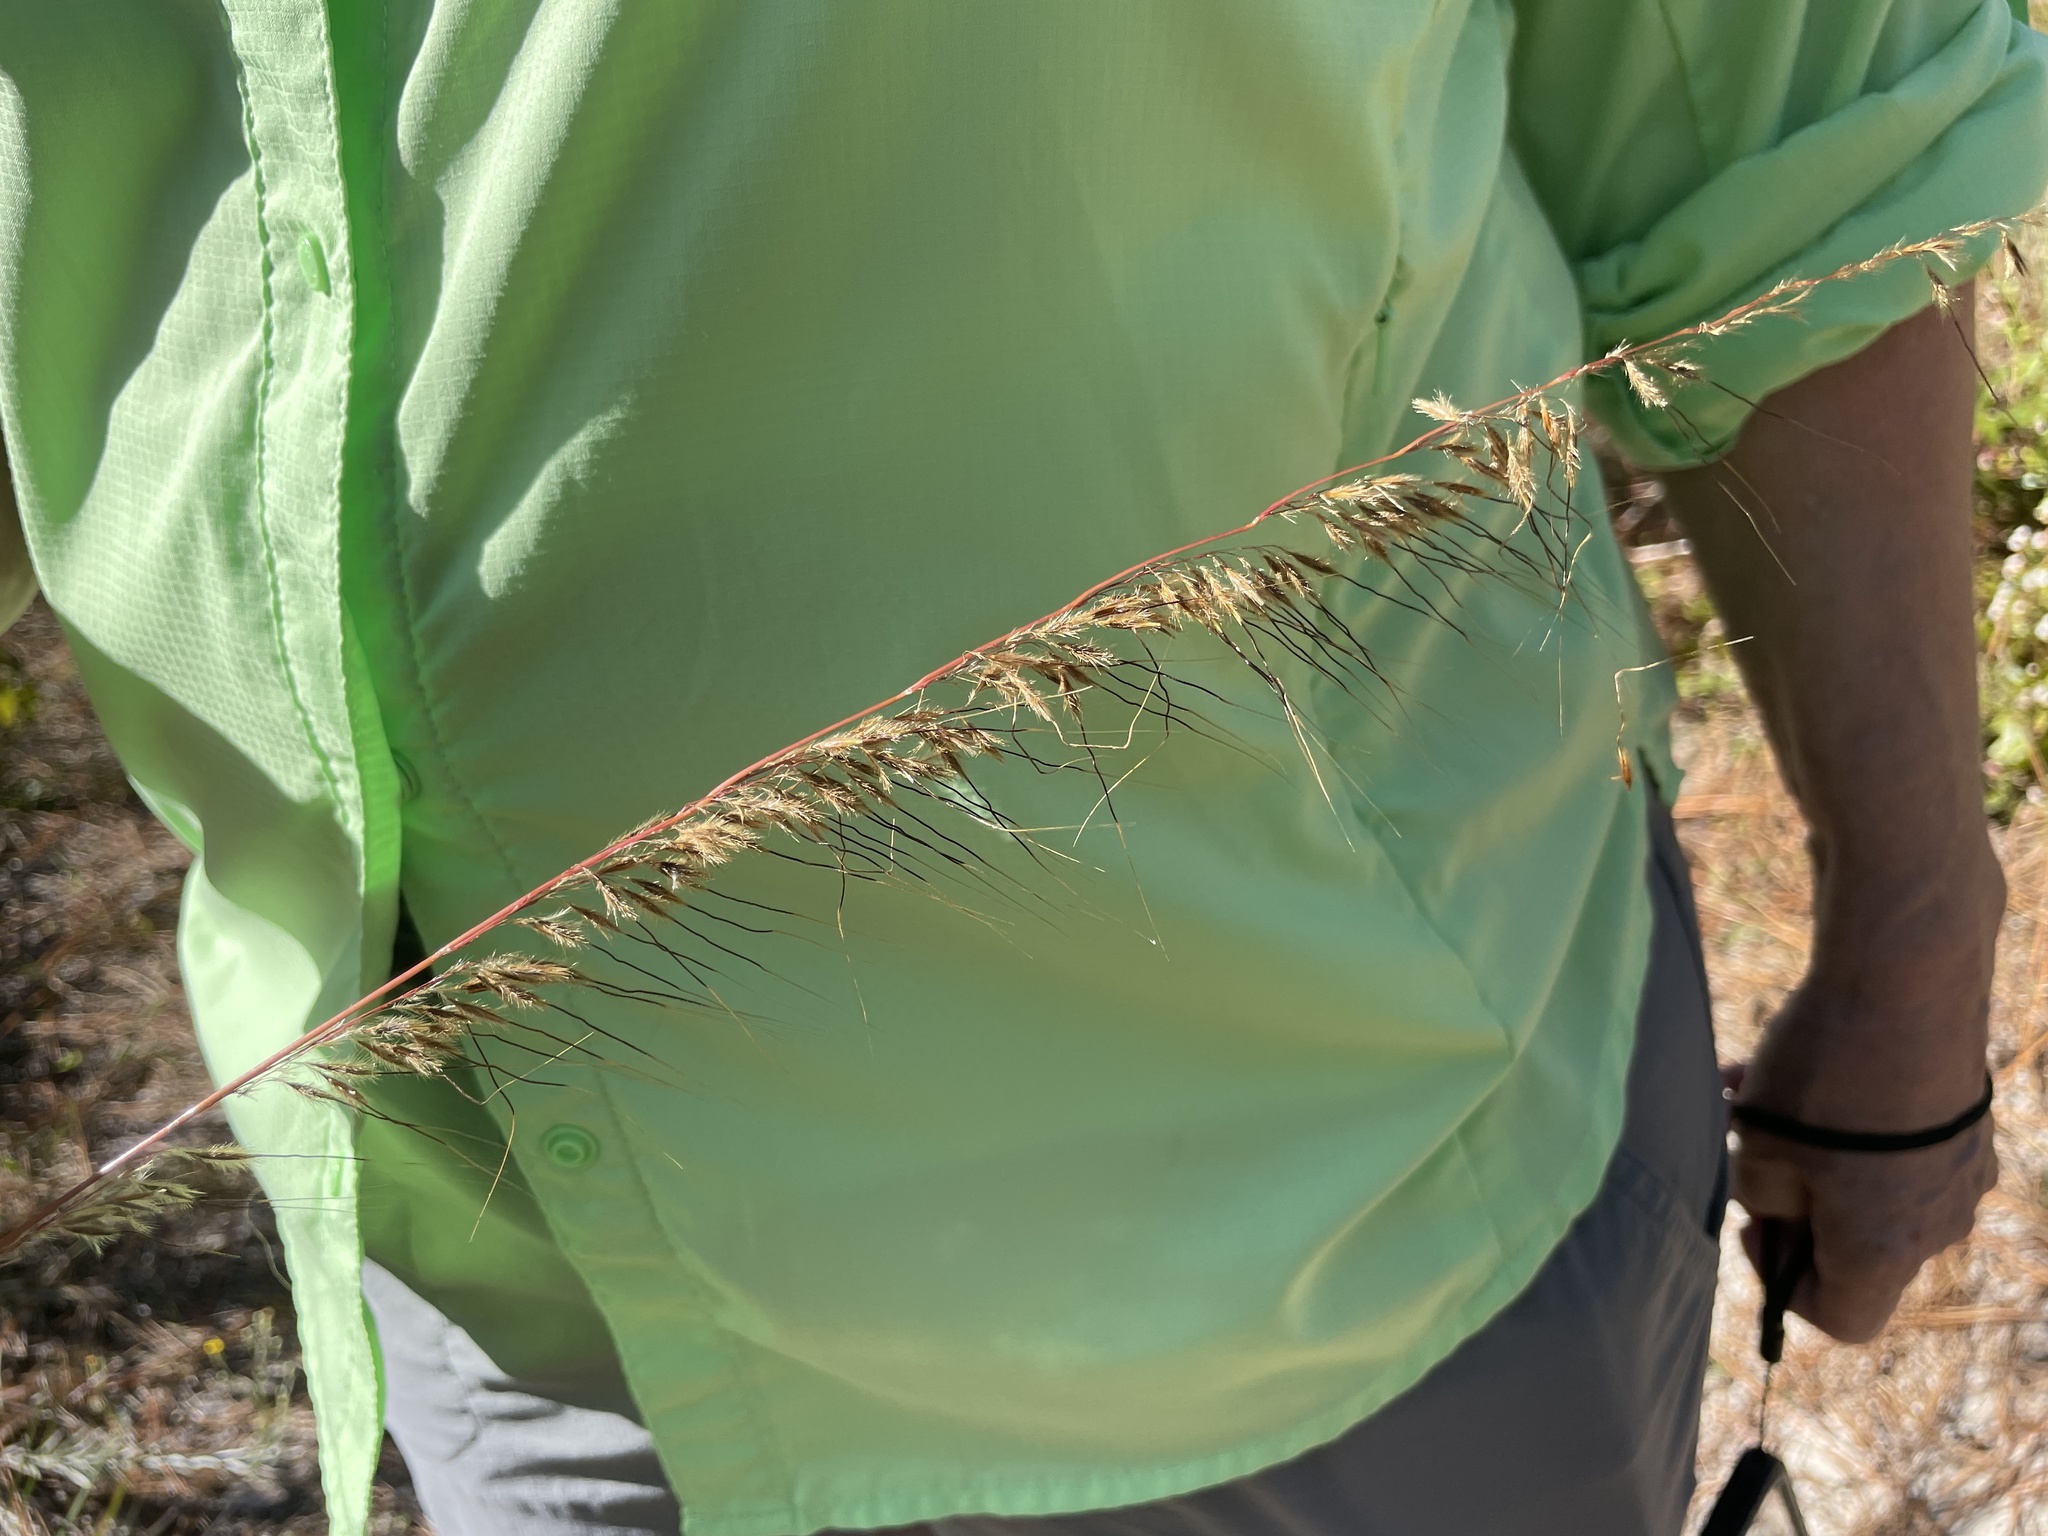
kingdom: Plantae
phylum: Tracheophyta
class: Liliopsida
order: Poales
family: Poaceae
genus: Sorghastrum
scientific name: Sorghastrum secundum
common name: Lopsided indian grass
